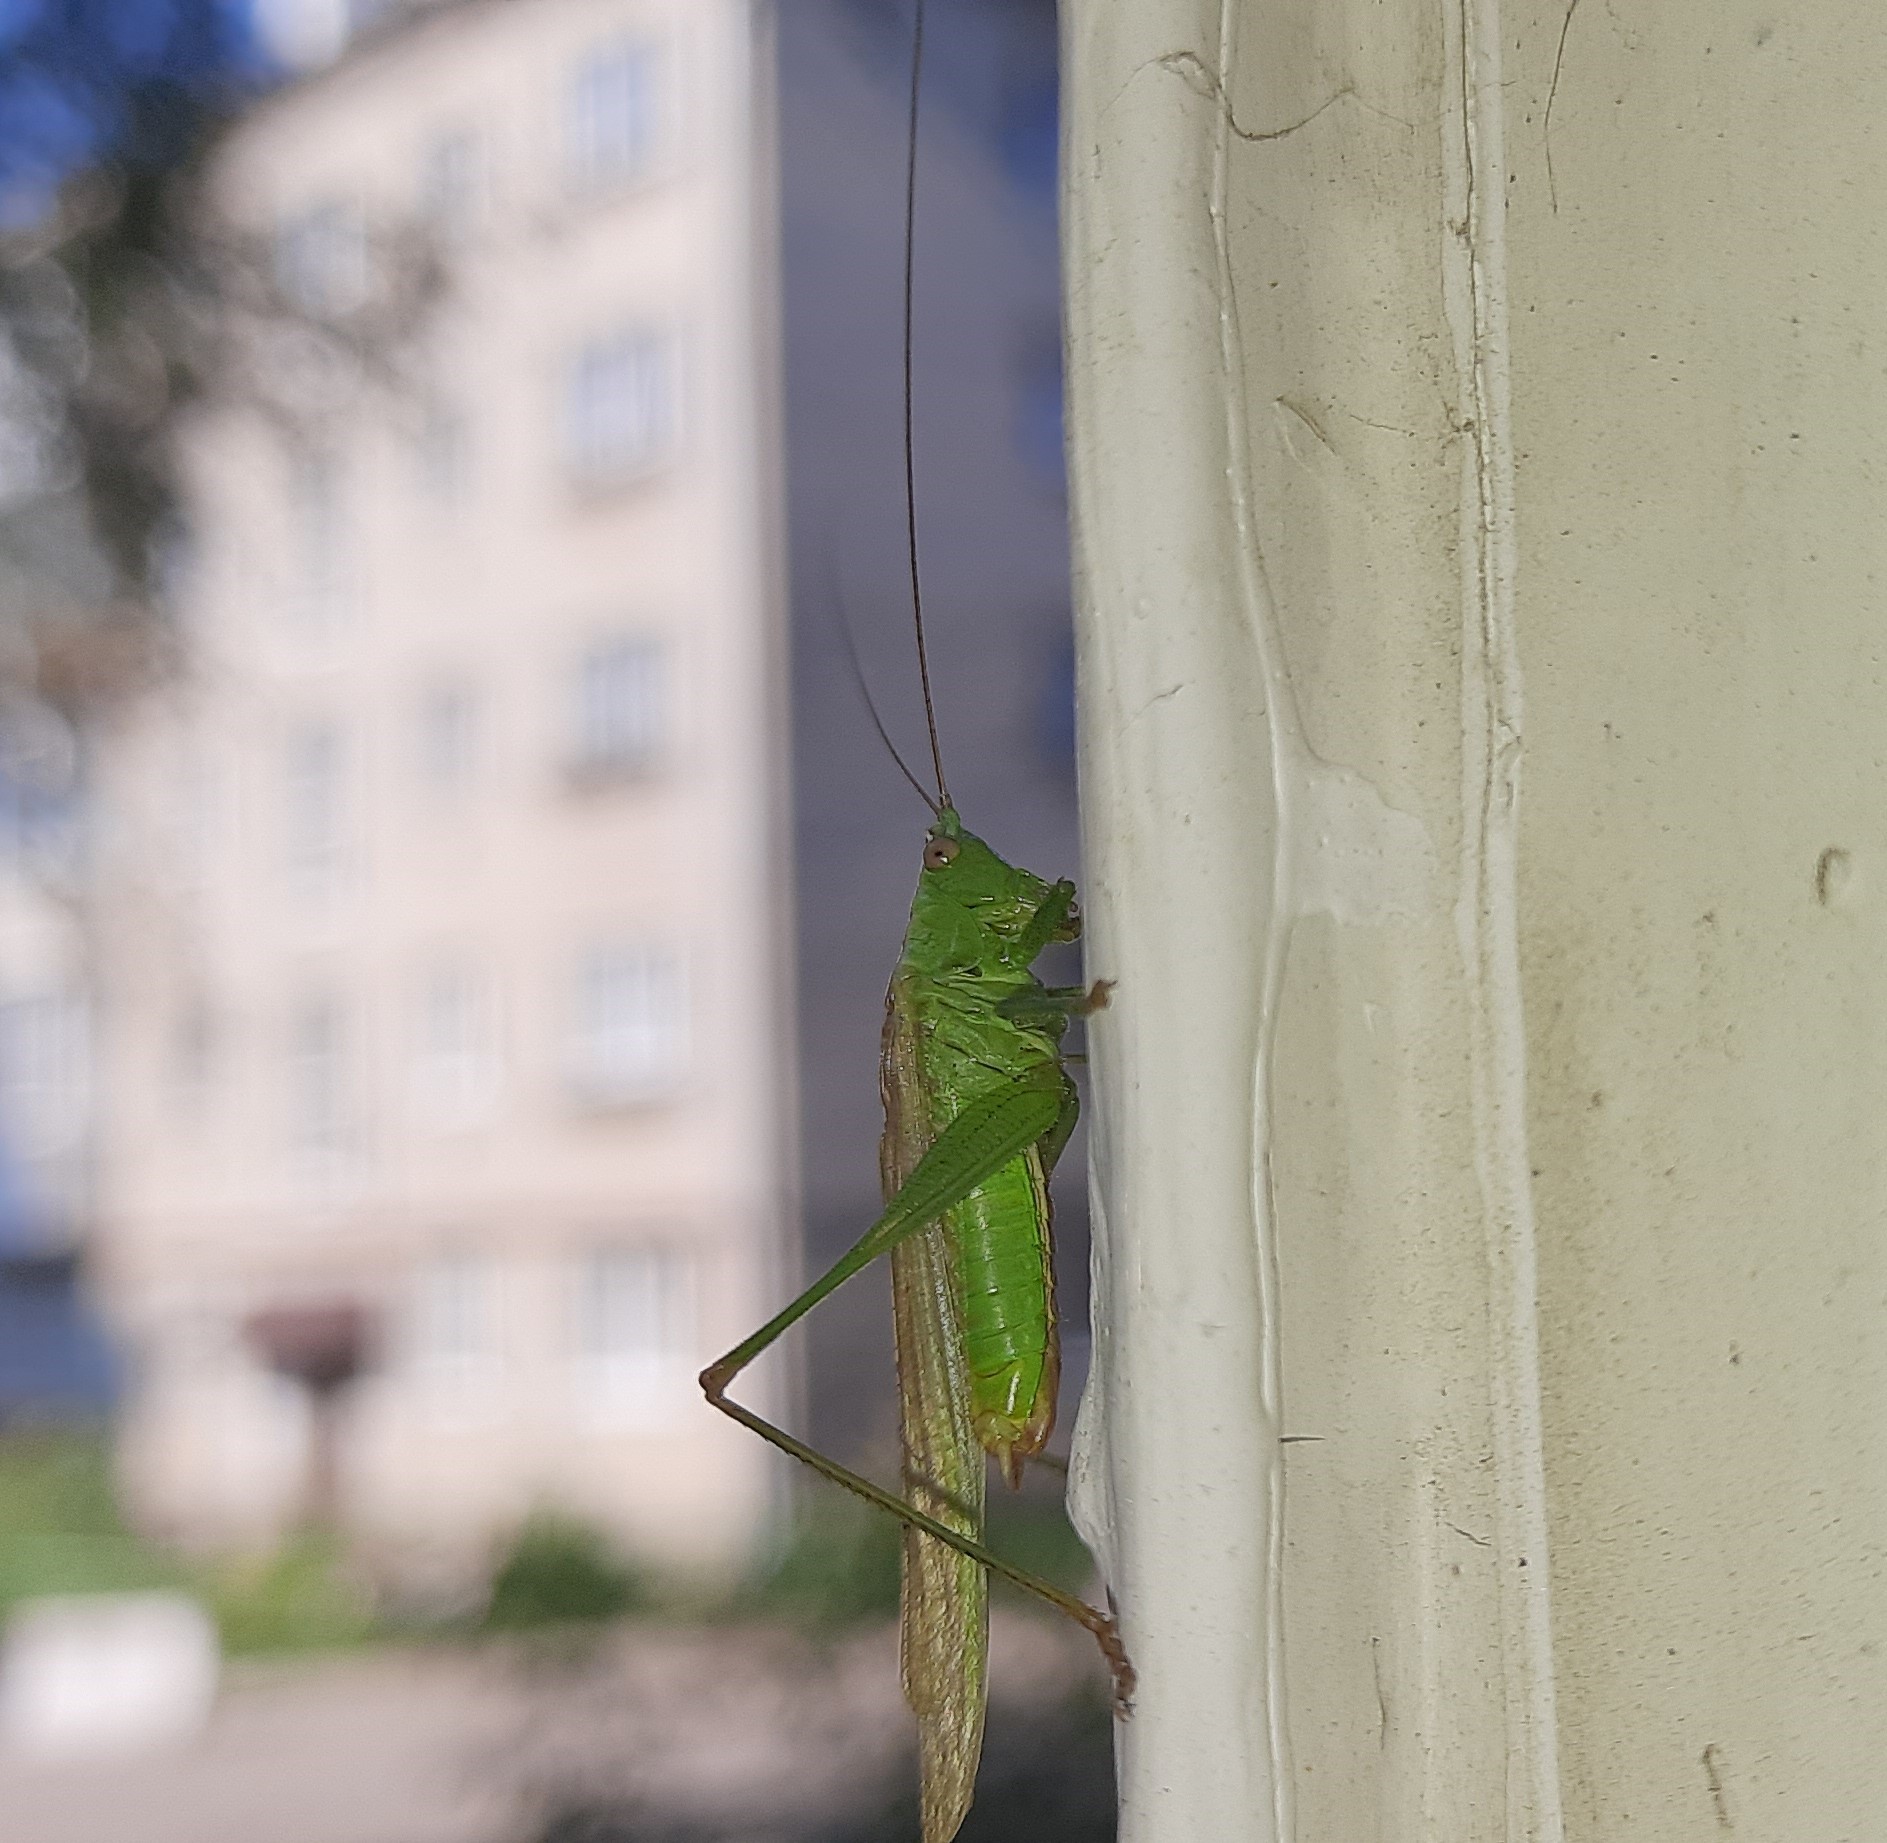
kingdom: Animalia
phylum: Arthropoda
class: Insecta
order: Orthoptera
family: Tettigoniidae
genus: Conocephalus
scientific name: Conocephalus fuscus
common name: Long-winged conehead
